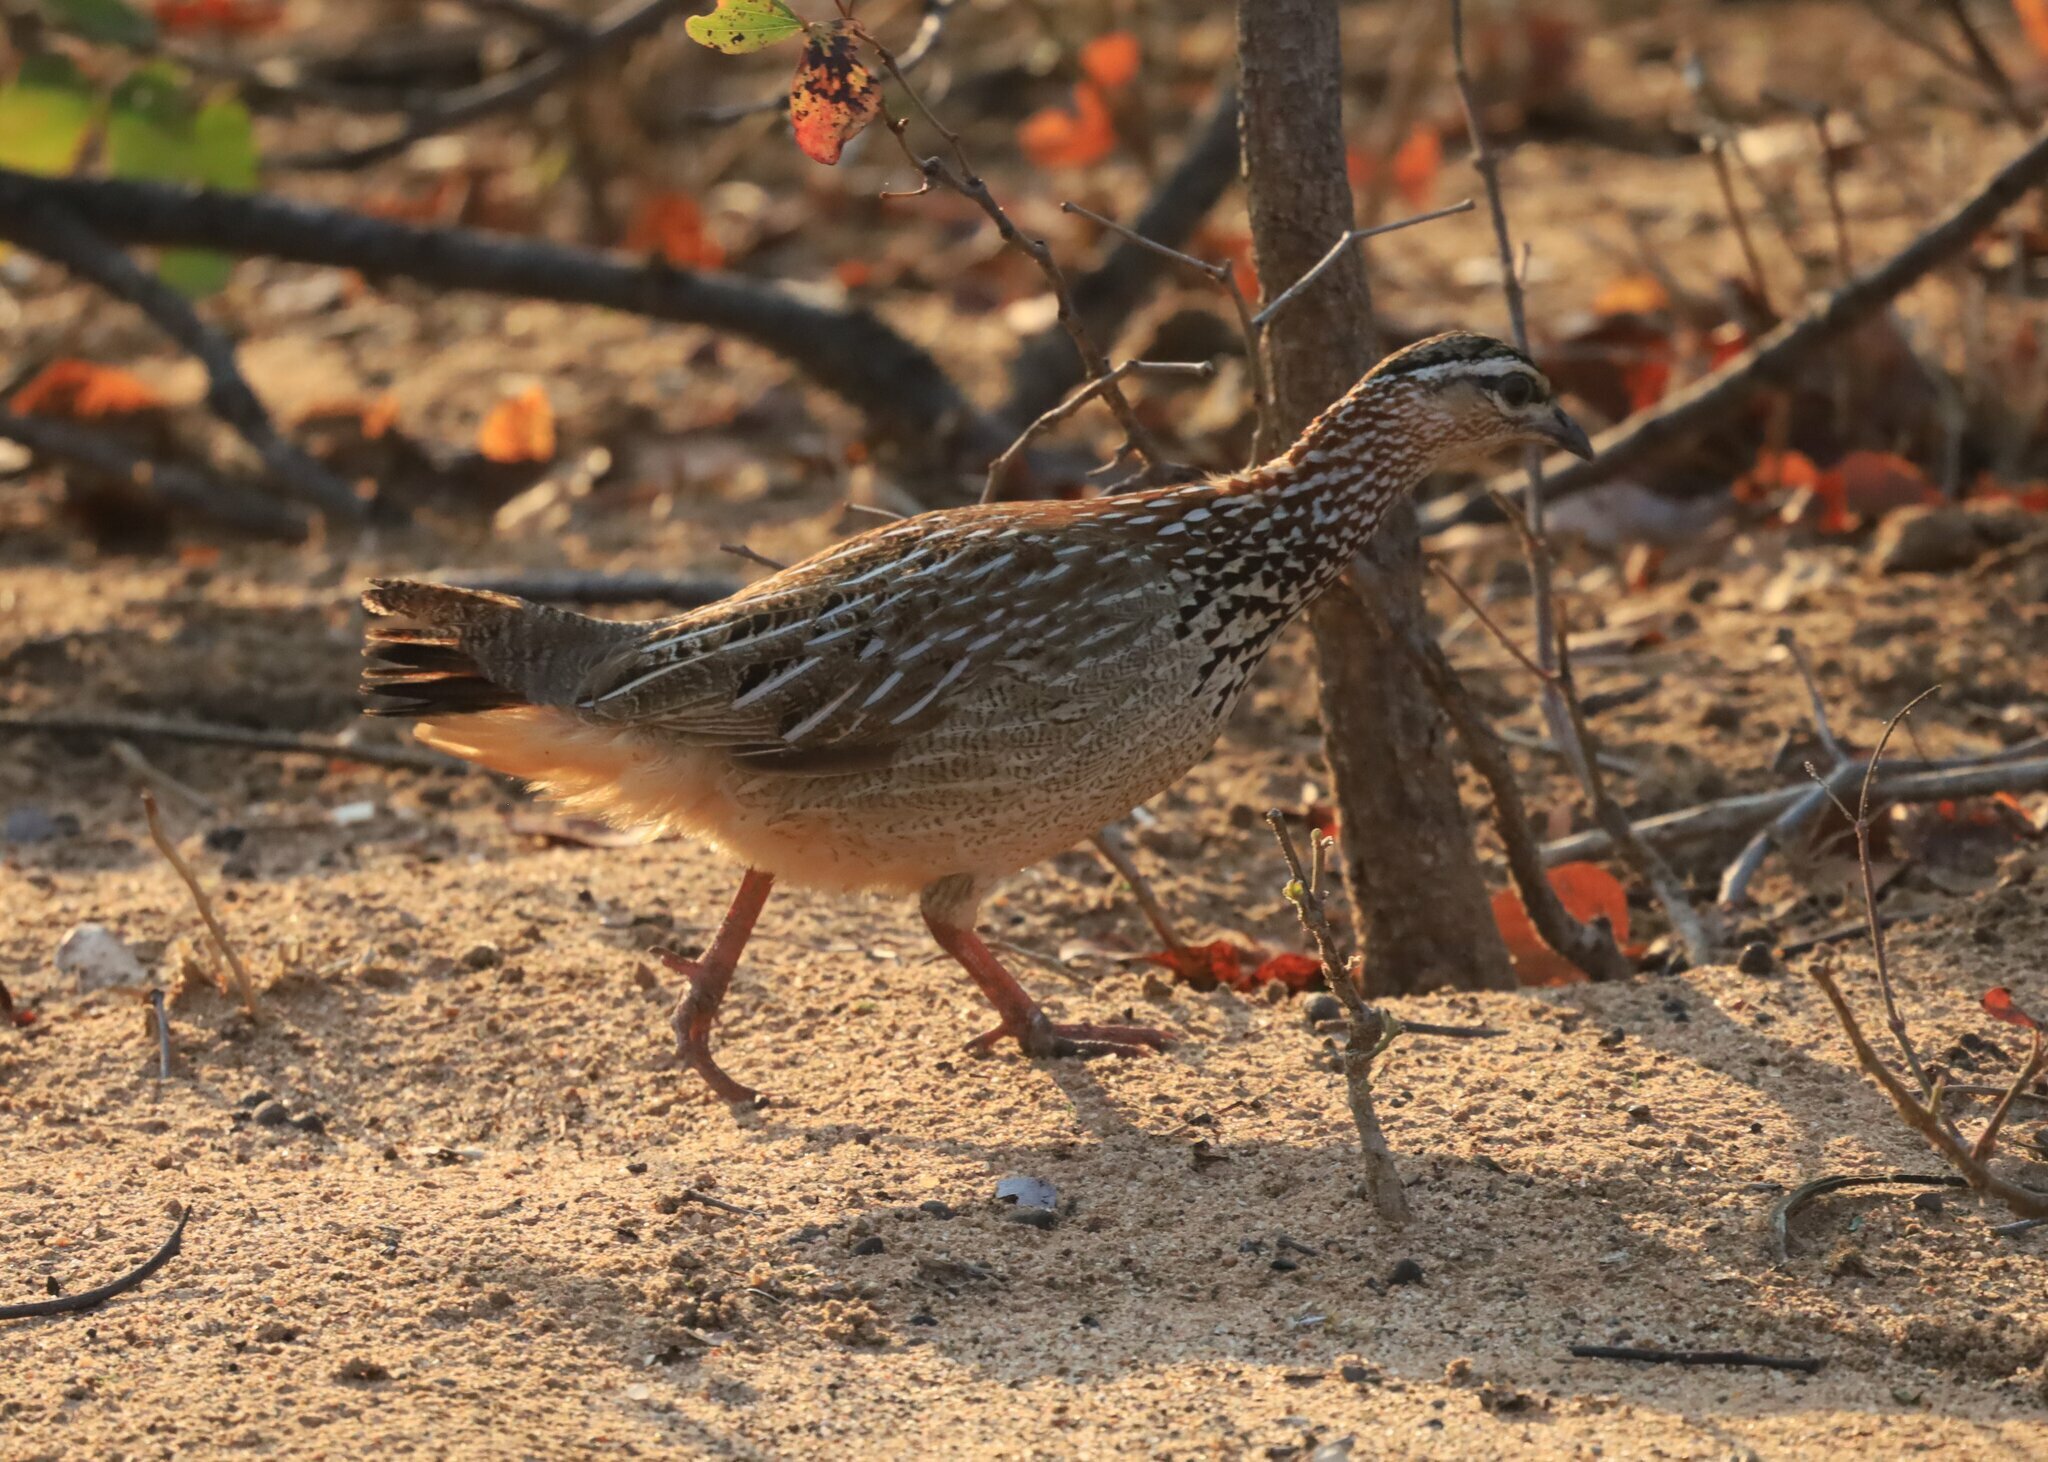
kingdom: Animalia
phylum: Chordata
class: Aves
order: Galliformes
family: Phasianidae
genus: Ortygornis
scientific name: Ortygornis sephaena
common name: Crested francolin
